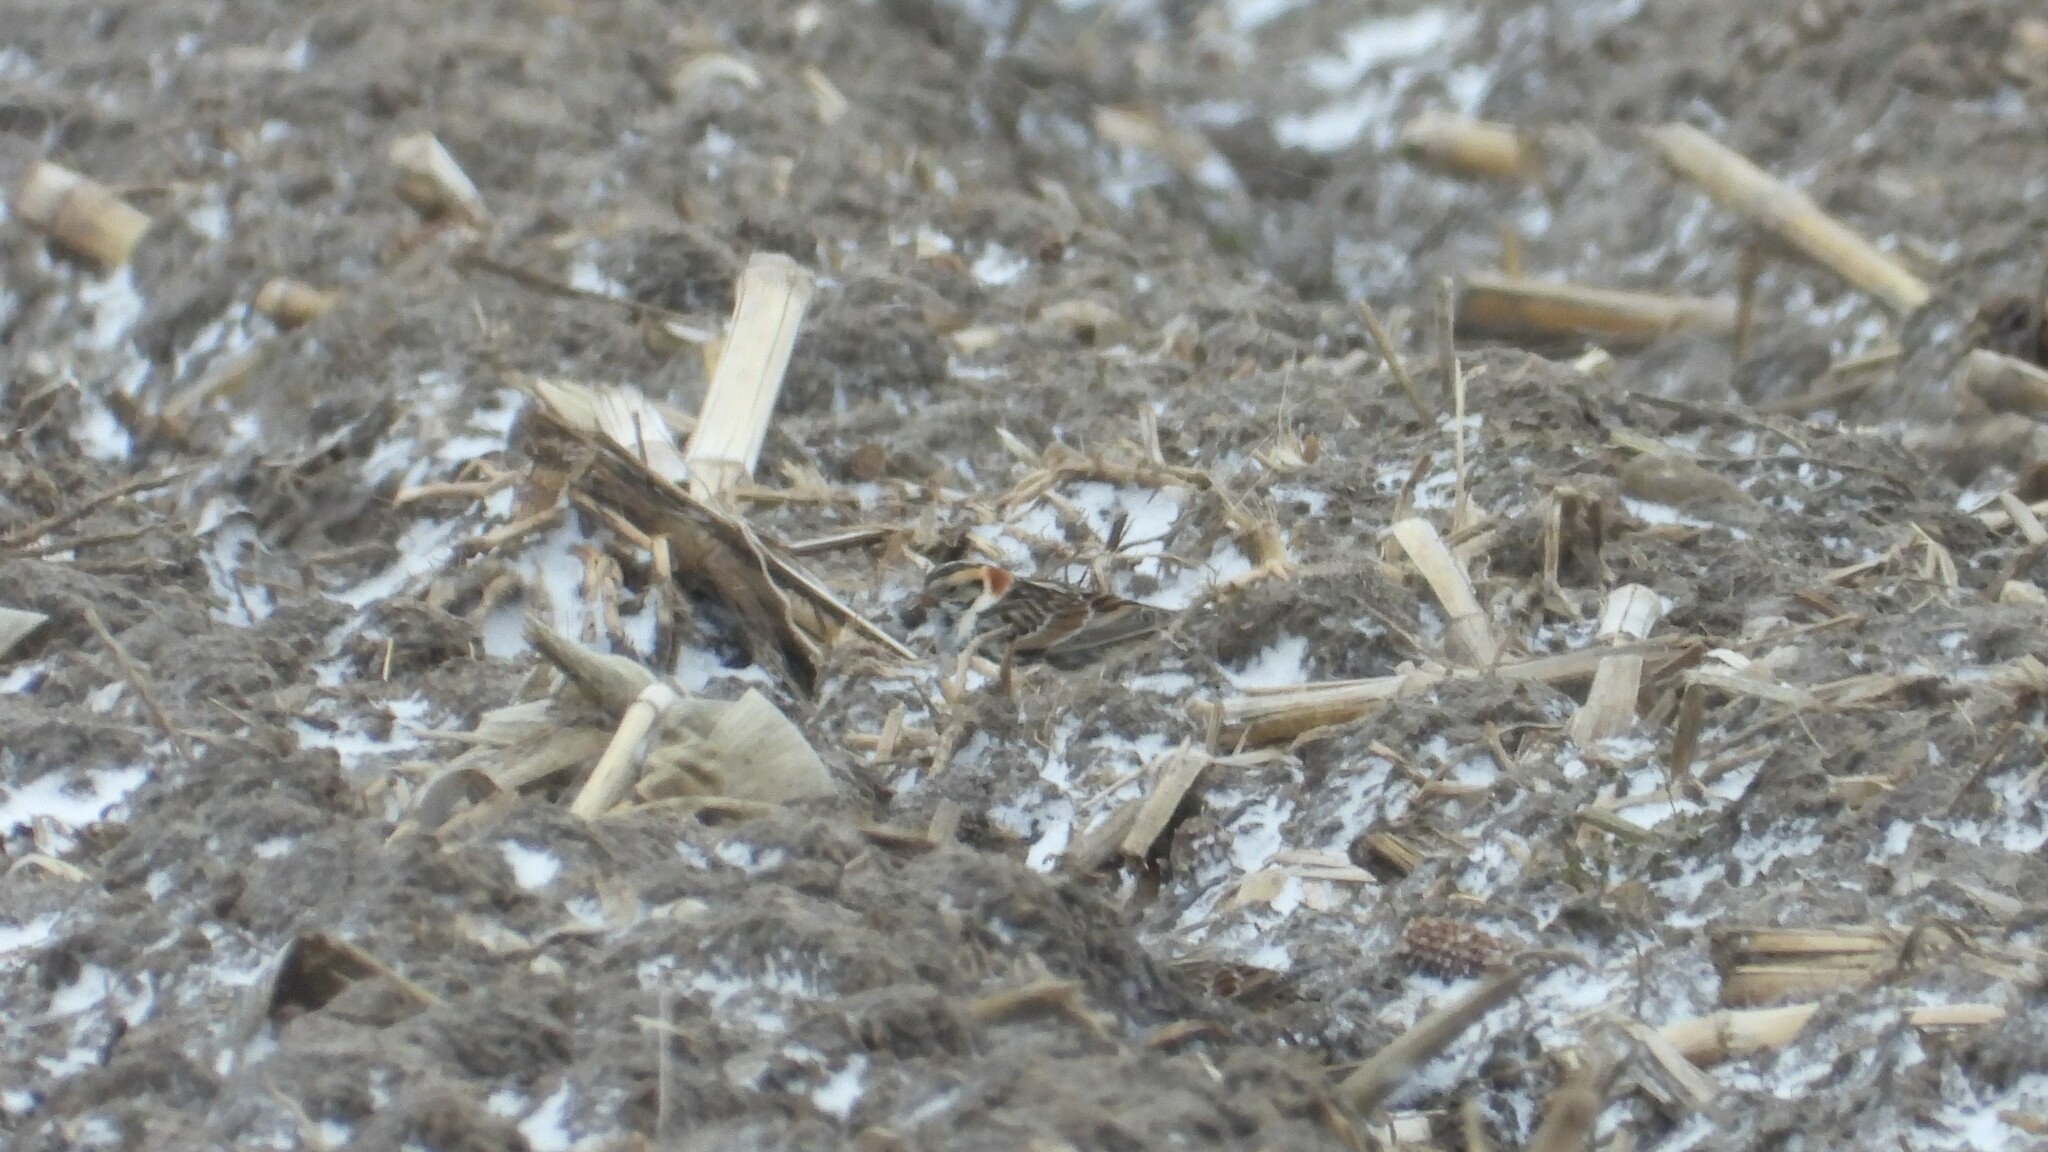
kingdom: Animalia
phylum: Chordata
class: Aves
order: Passeriformes
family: Calcariidae
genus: Calcarius
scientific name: Calcarius lapponicus
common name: Lapland longspur
